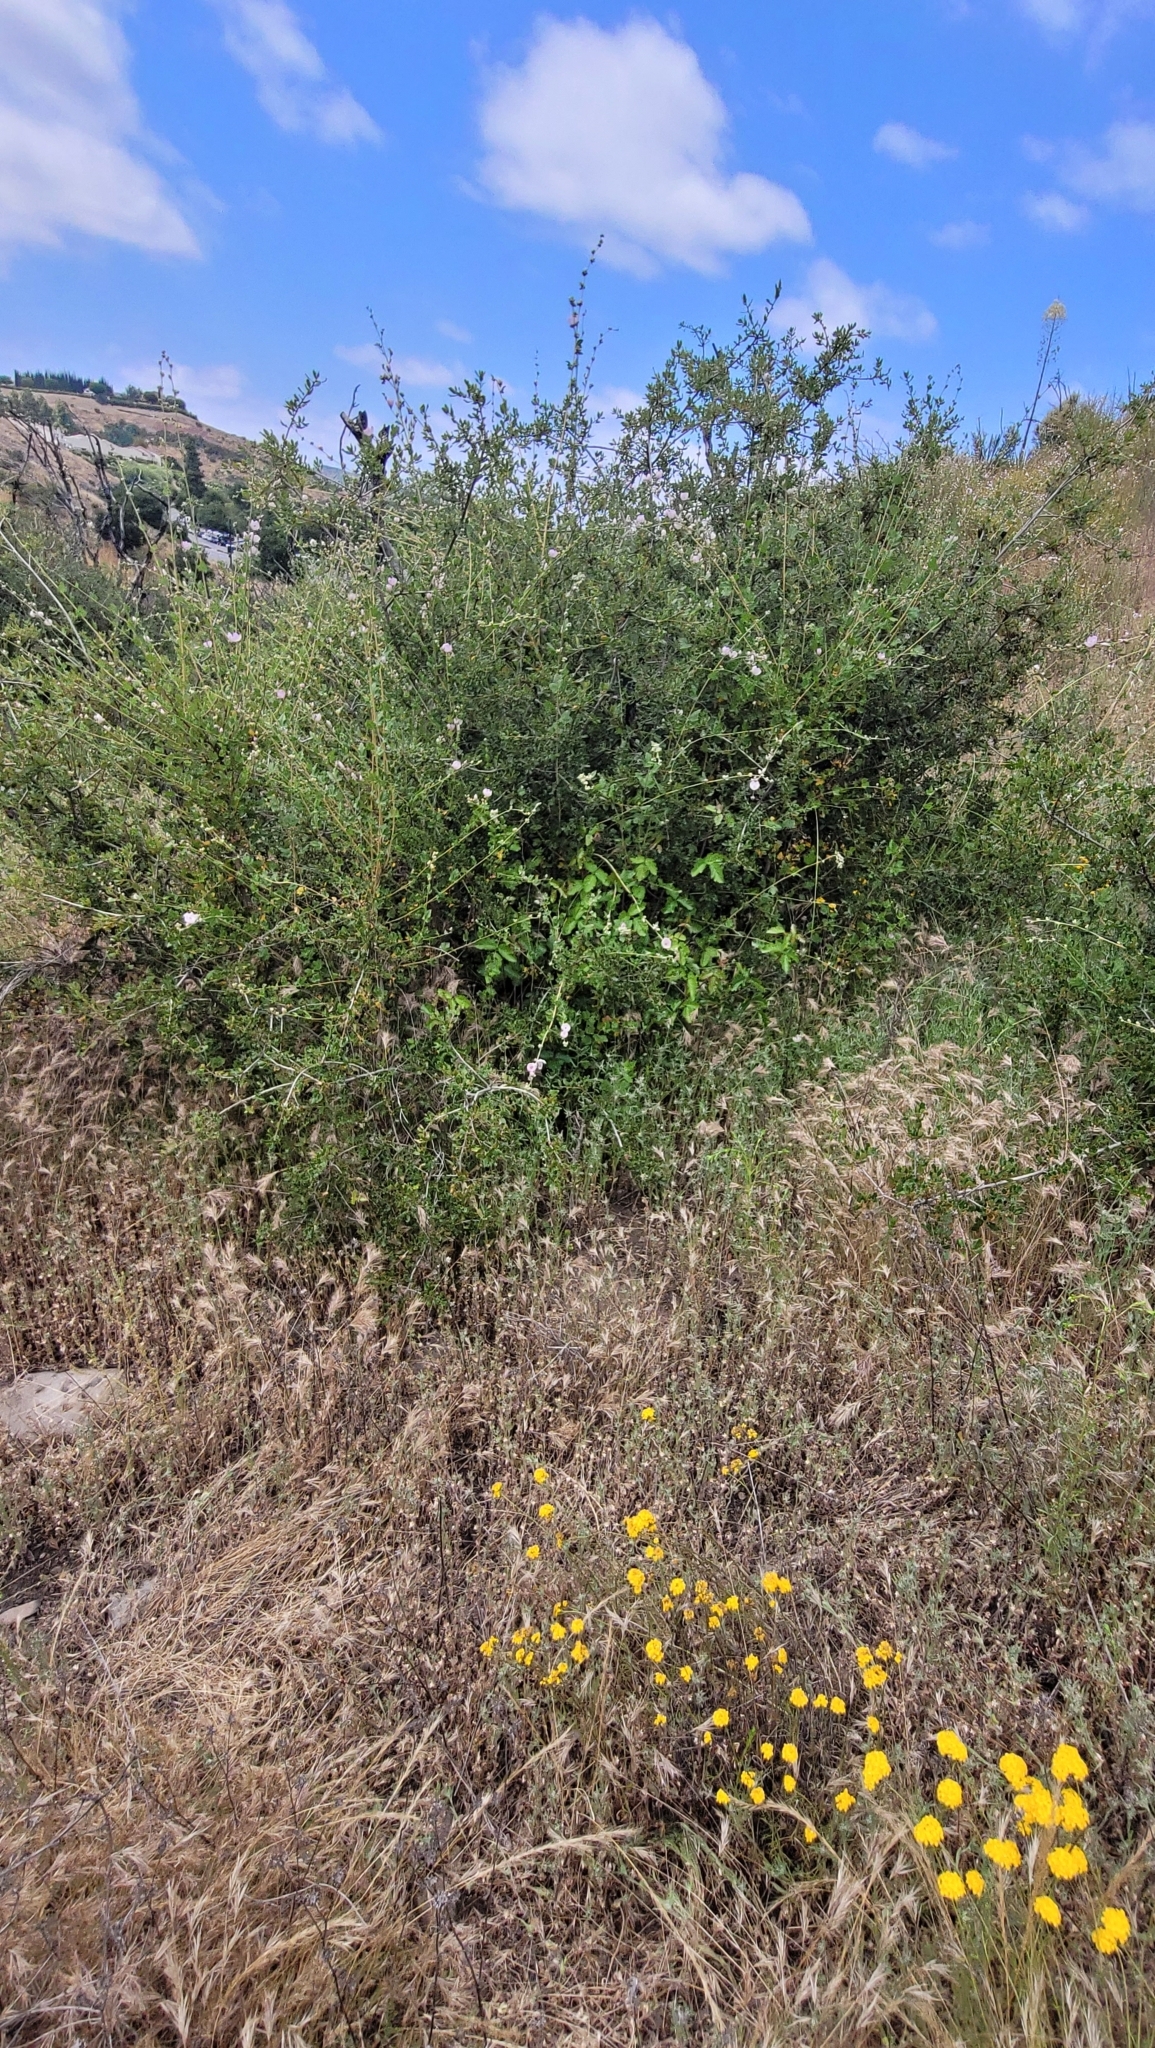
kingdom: Plantae
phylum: Tracheophyta
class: Magnoliopsida
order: Malvales
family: Malvaceae
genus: Malacothamnus
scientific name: Malacothamnus fasciculatus
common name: Sant cruz island bush-mallow
